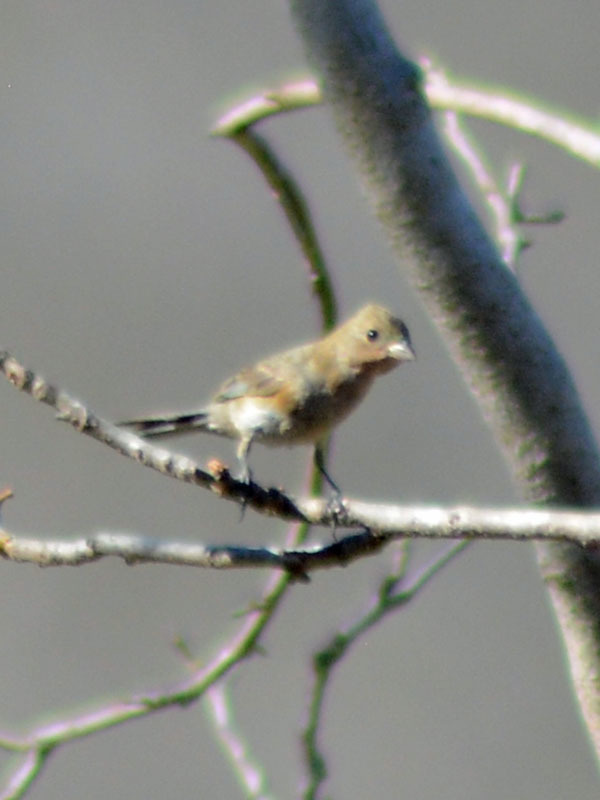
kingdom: Animalia
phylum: Chordata
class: Aves
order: Passeriformes
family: Cardinalidae
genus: Passerina
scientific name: Passerina amoena
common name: Lazuli bunting
